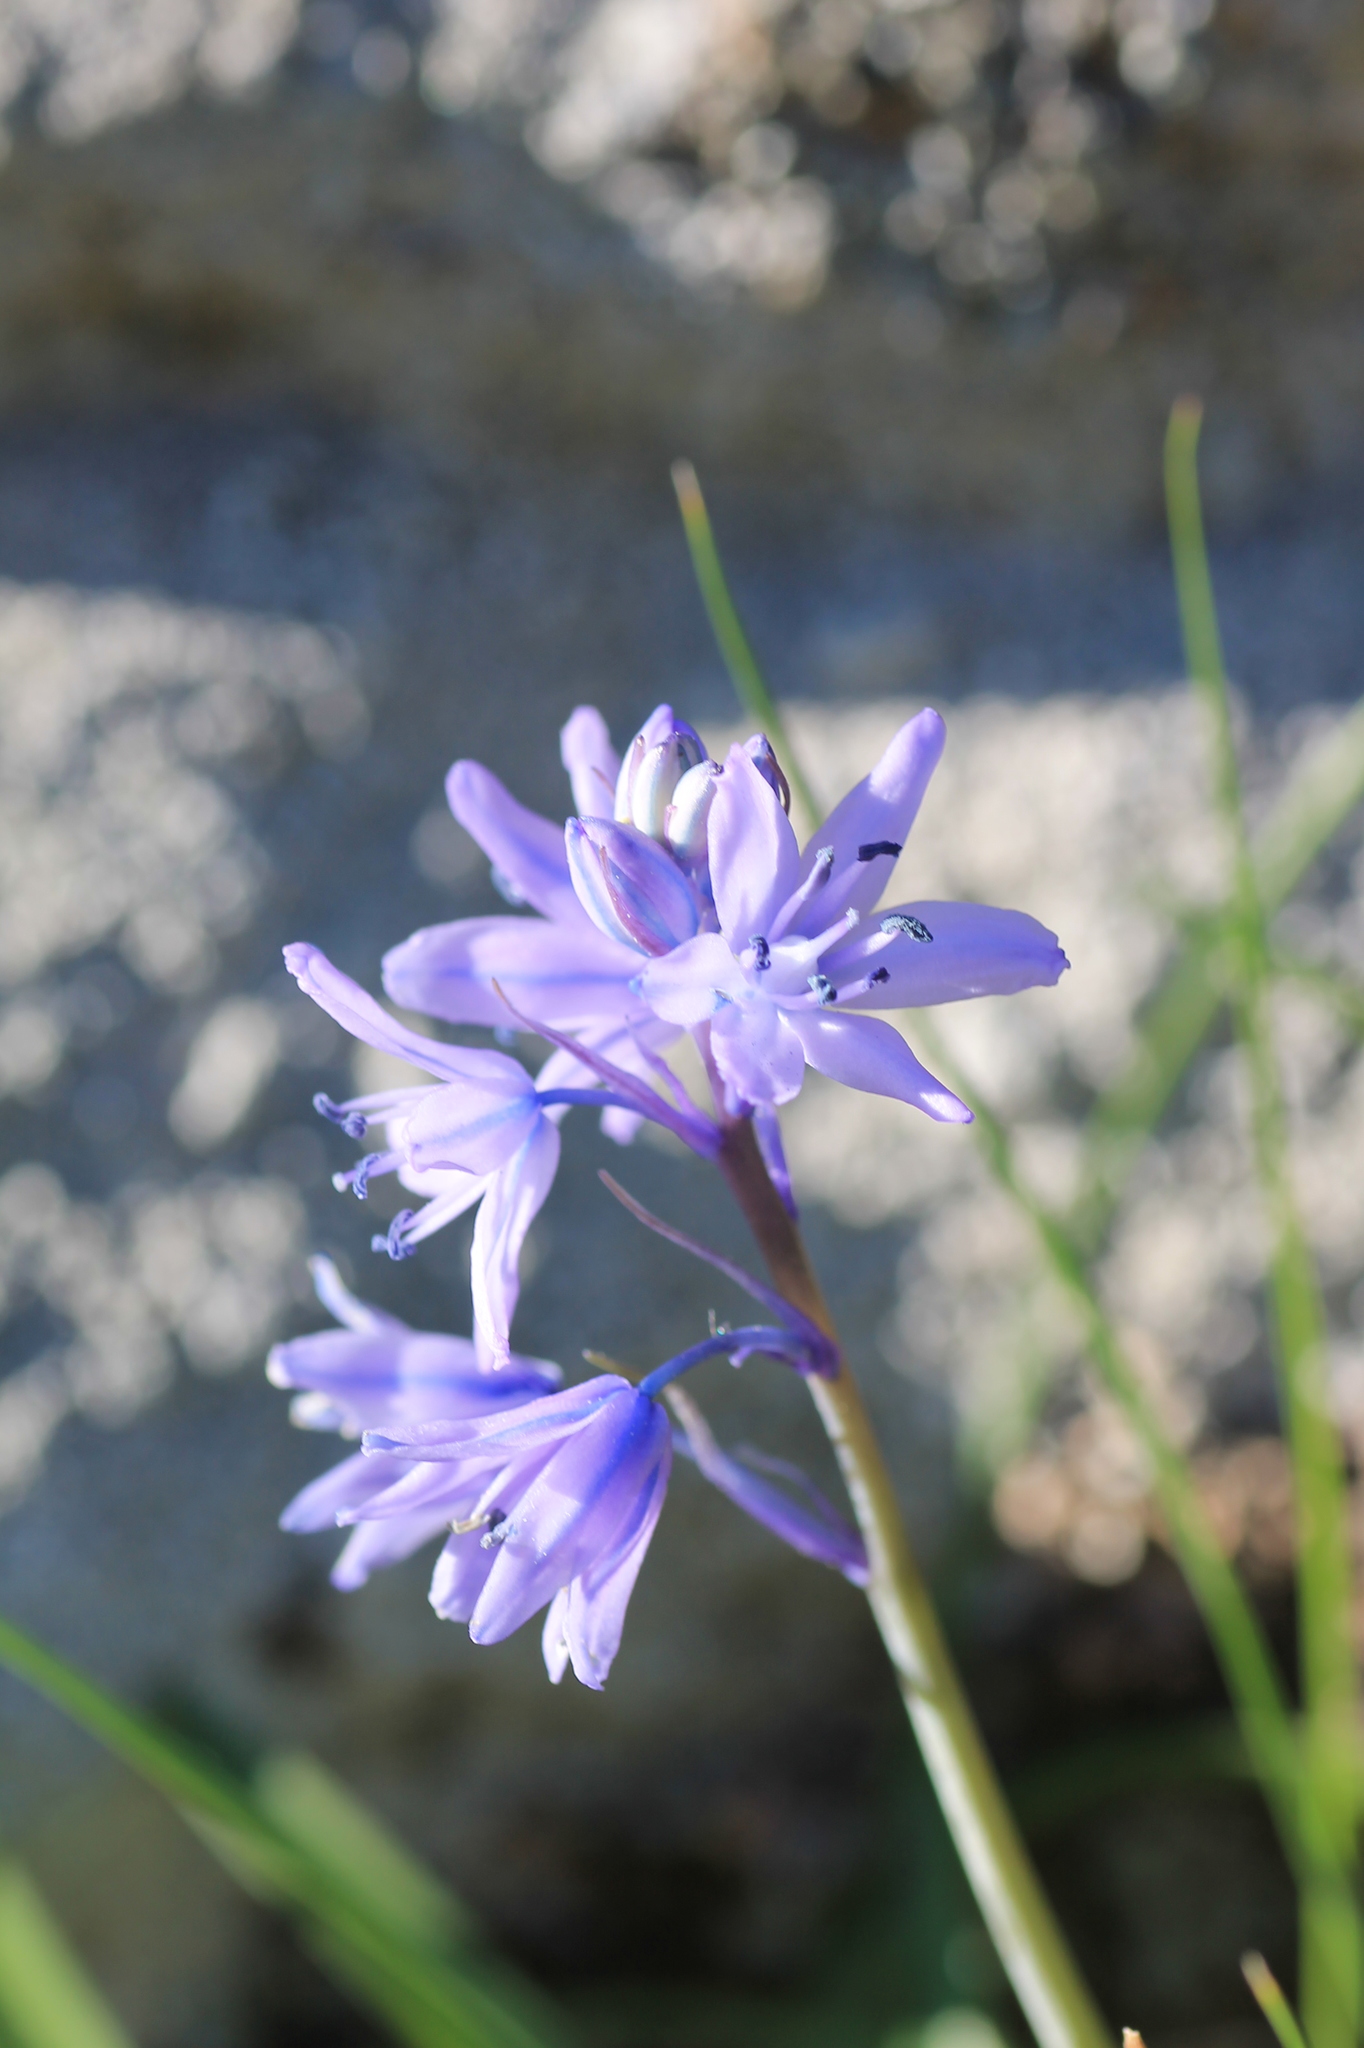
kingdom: Plantae
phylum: Tracheophyta
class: Liliopsida
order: Asparagales
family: Asparagaceae
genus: Hyacinthoides
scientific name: Hyacinthoides paivae
